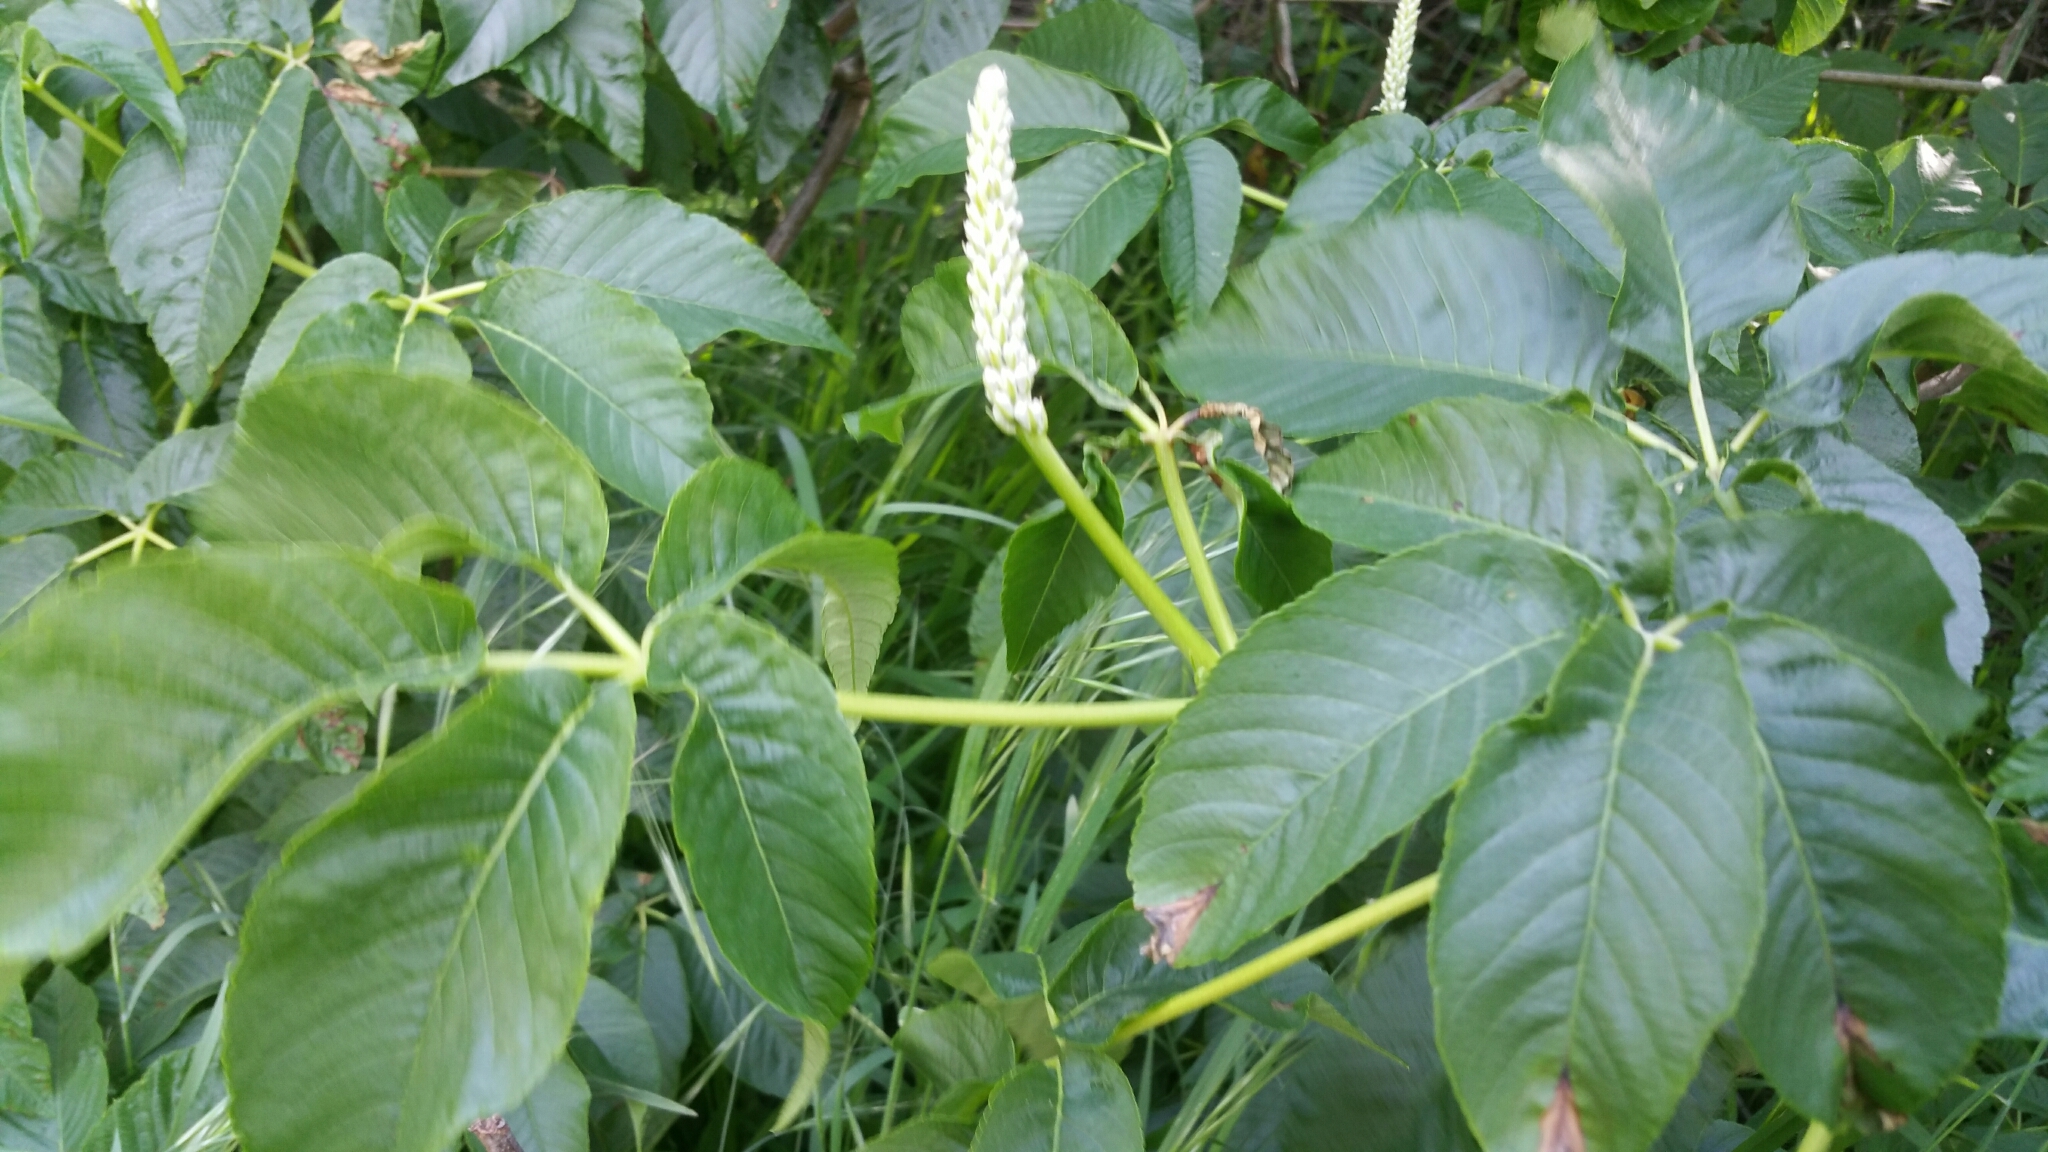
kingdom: Plantae
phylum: Tracheophyta
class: Magnoliopsida
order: Sapindales
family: Sapindaceae
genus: Aesculus
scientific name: Aesculus californica
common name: California buckeye
